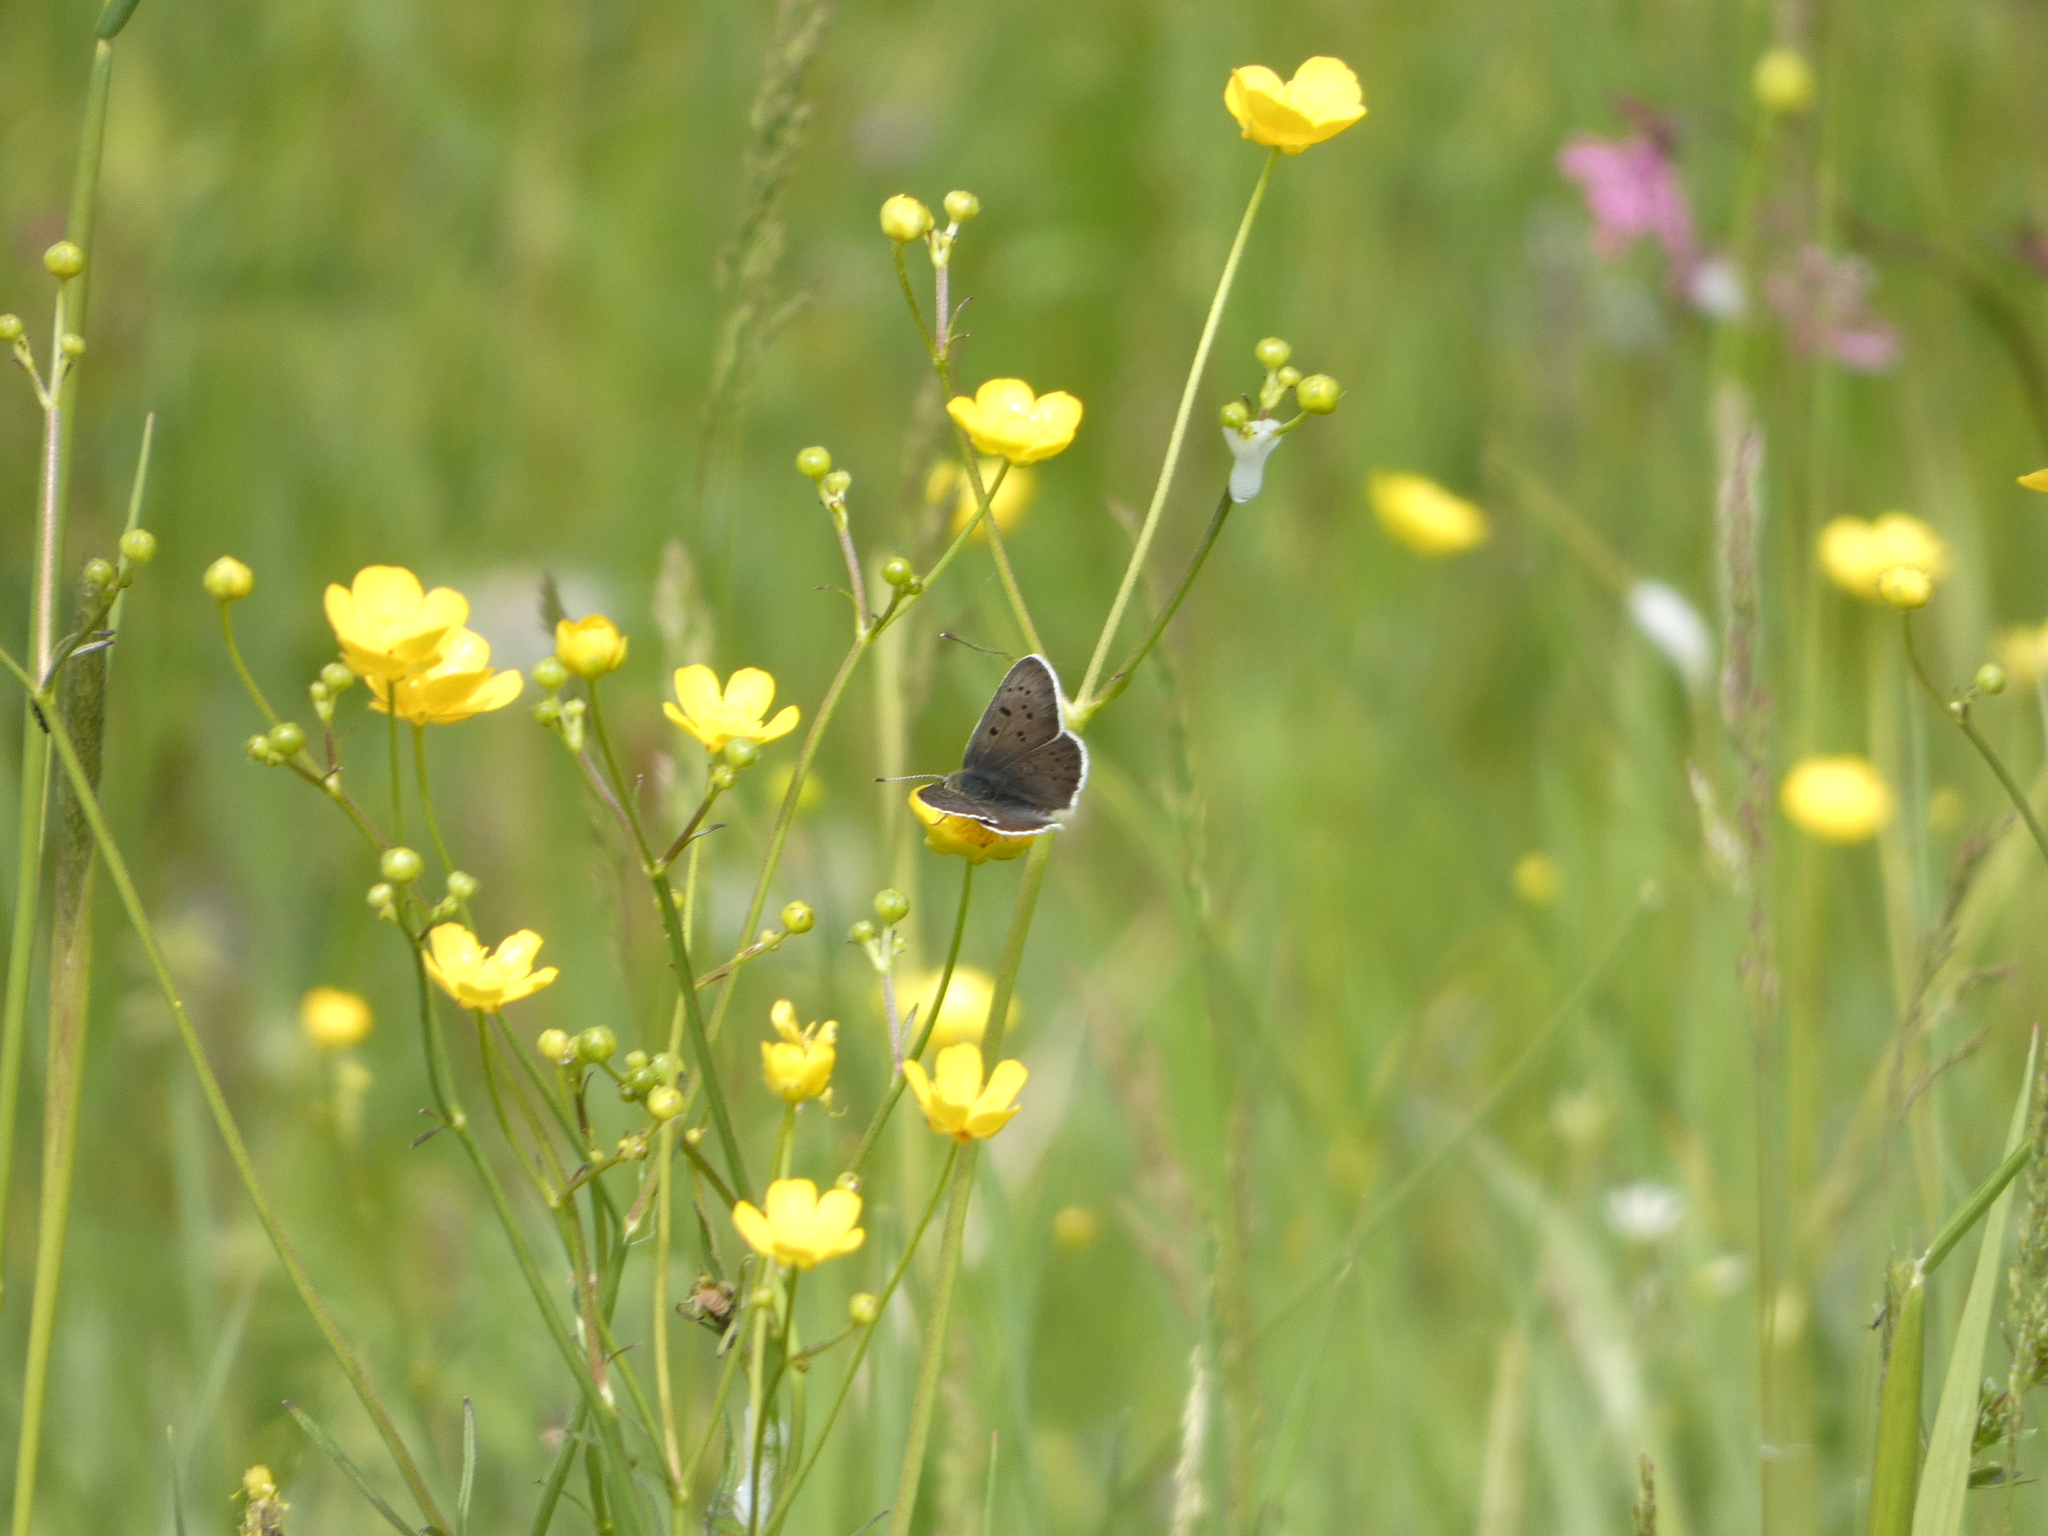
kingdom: Animalia
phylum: Arthropoda
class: Insecta
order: Lepidoptera
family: Lycaenidae
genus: Loweia
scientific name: Loweia tityrus
